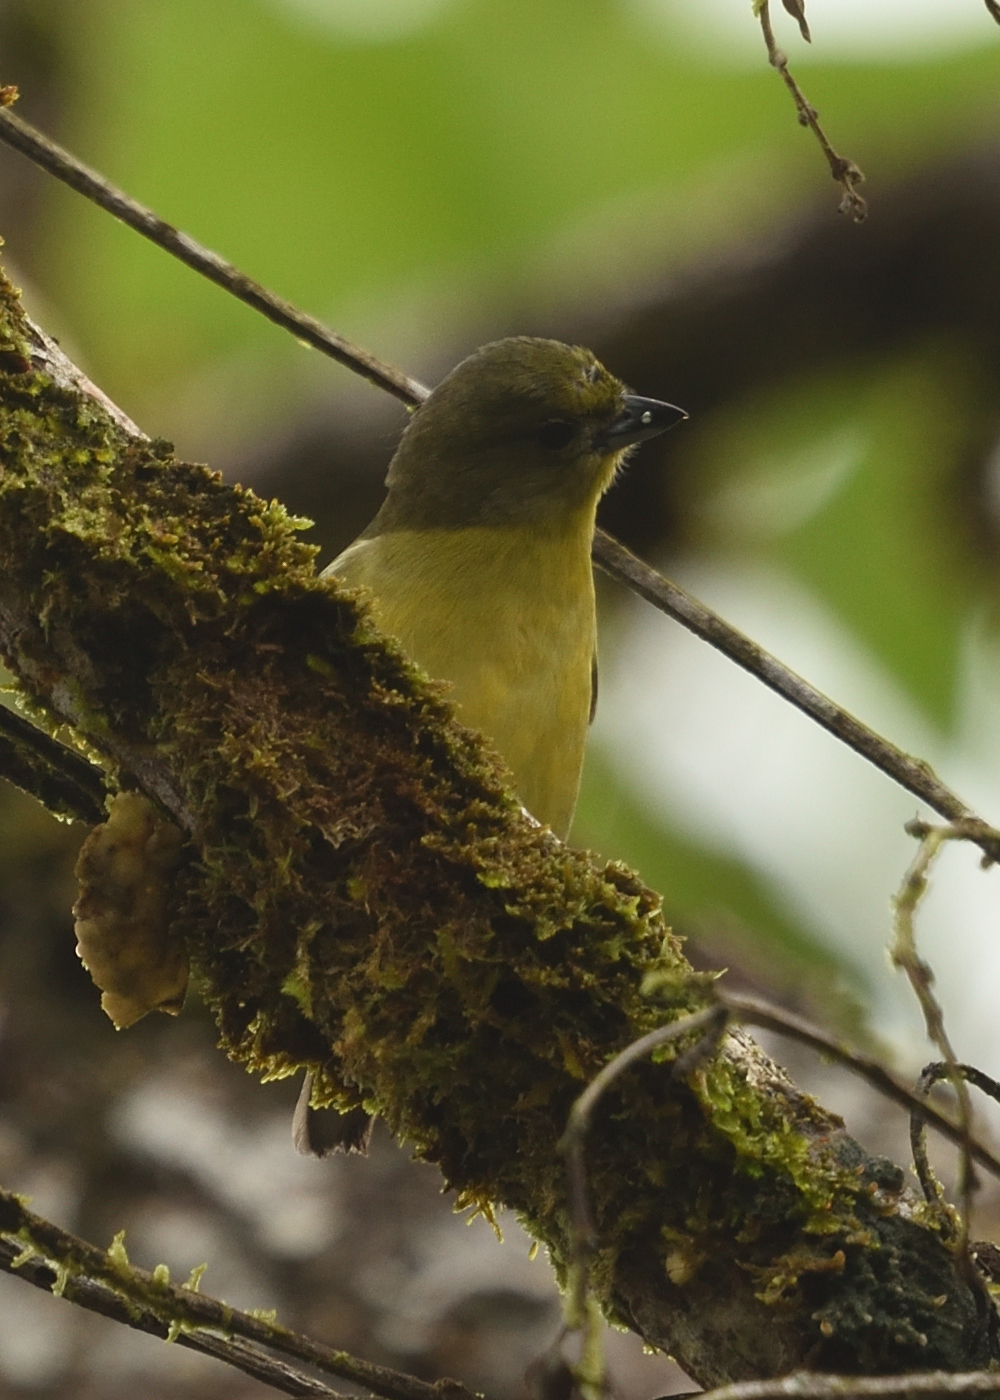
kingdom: Animalia
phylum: Chordata
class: Aves
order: Passeriformes
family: Fringillidae
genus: Euphonia
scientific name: Euphonia laniirostris
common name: Thick-billed euphonia
